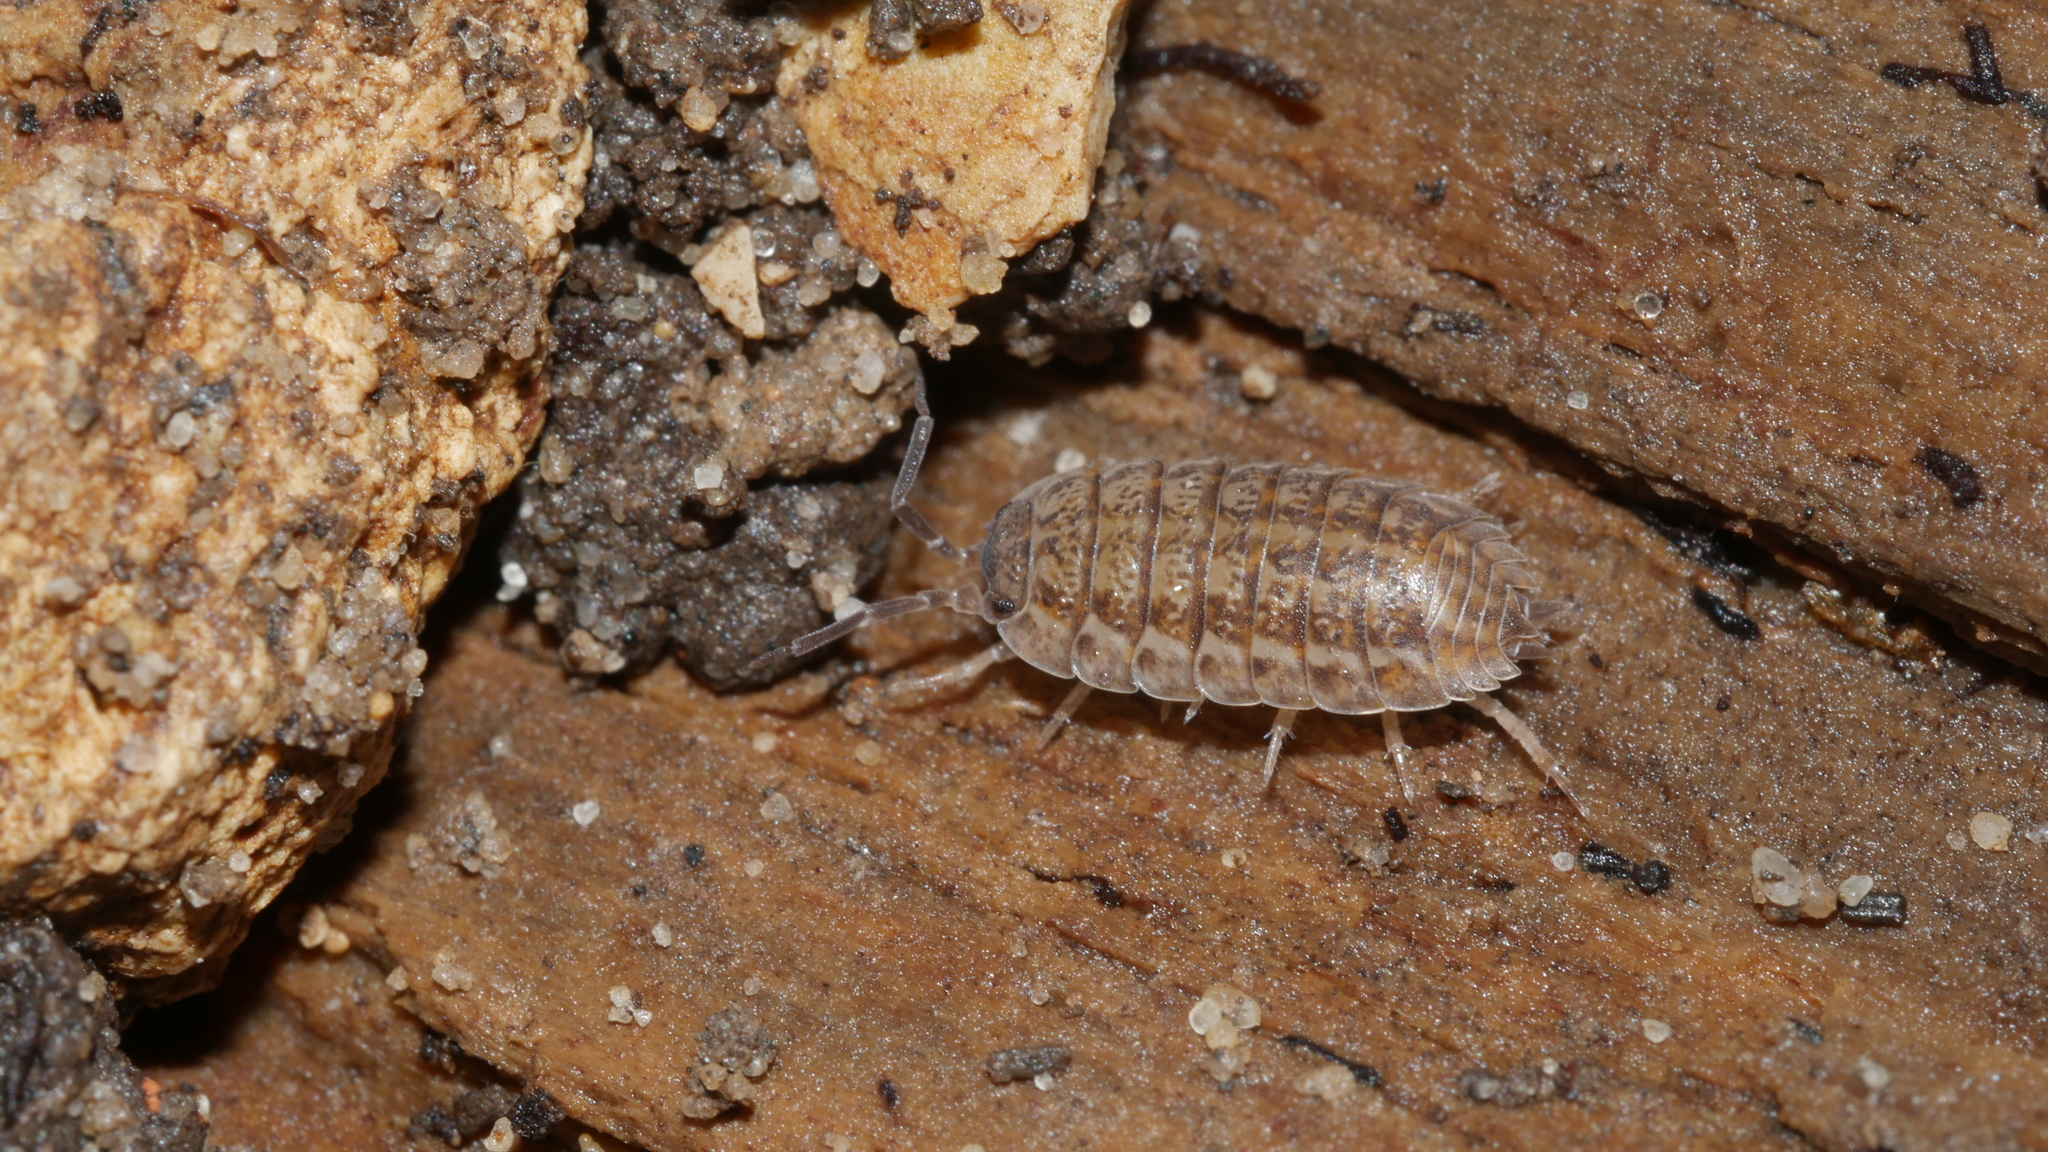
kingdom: Animalia
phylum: Arthropoda
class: Malacostraca
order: Isopoda
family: Trachelipodidae
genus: Trachelipus
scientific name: Trachelipus rathkii
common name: Isopod
